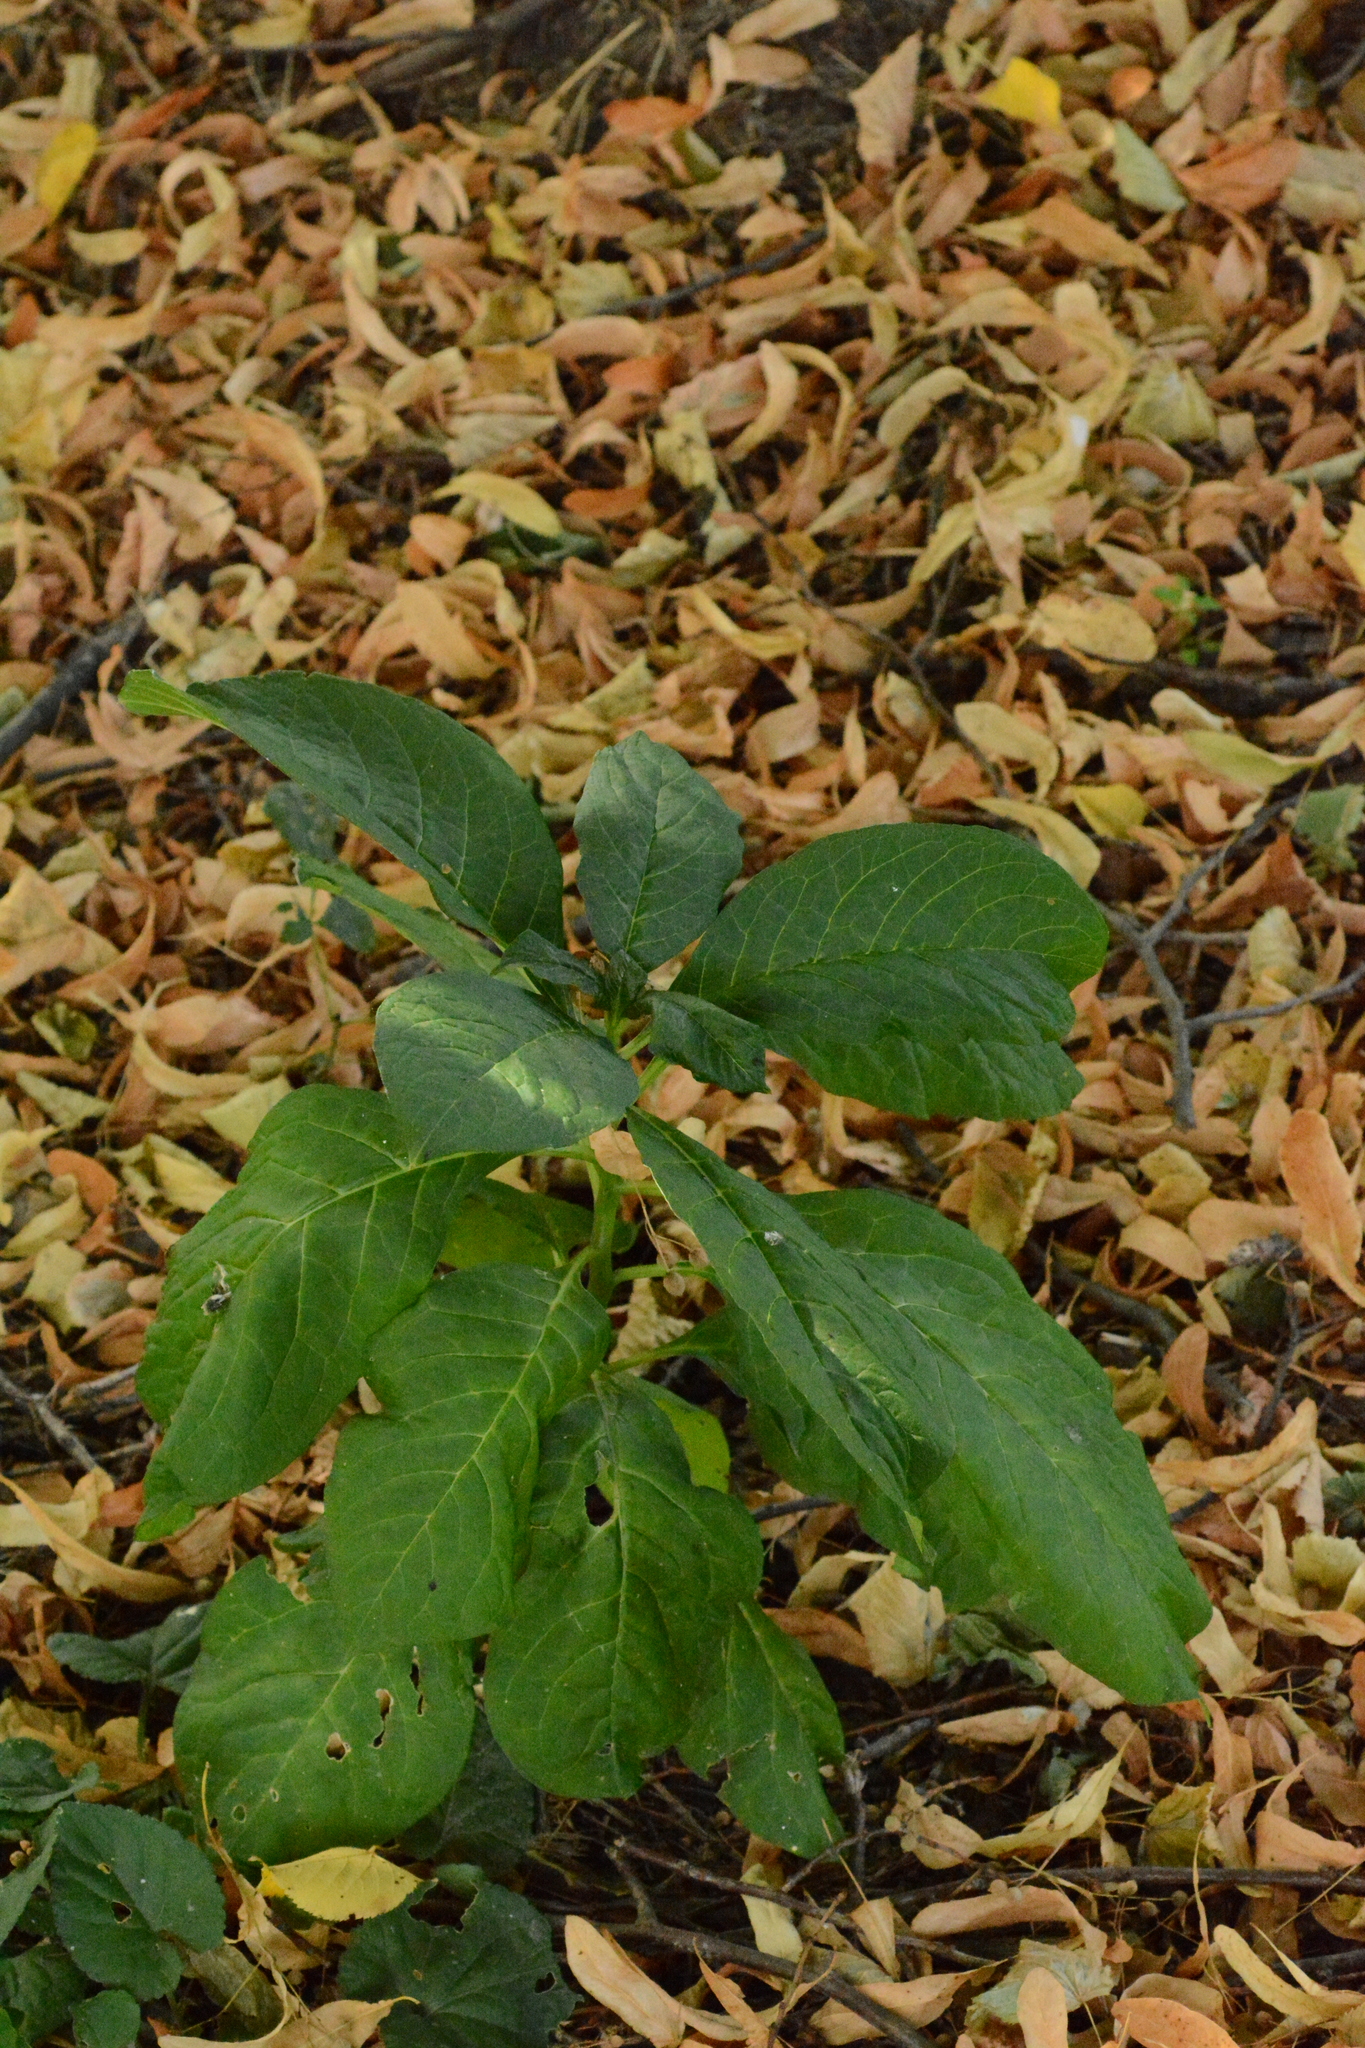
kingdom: Plantae
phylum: Tracheophyta
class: Magnoliopsida
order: Caryophyllales
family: Phytolaccaceae
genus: Phytolacca
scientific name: Phytolacca acinosa
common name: Indian pokeweed
